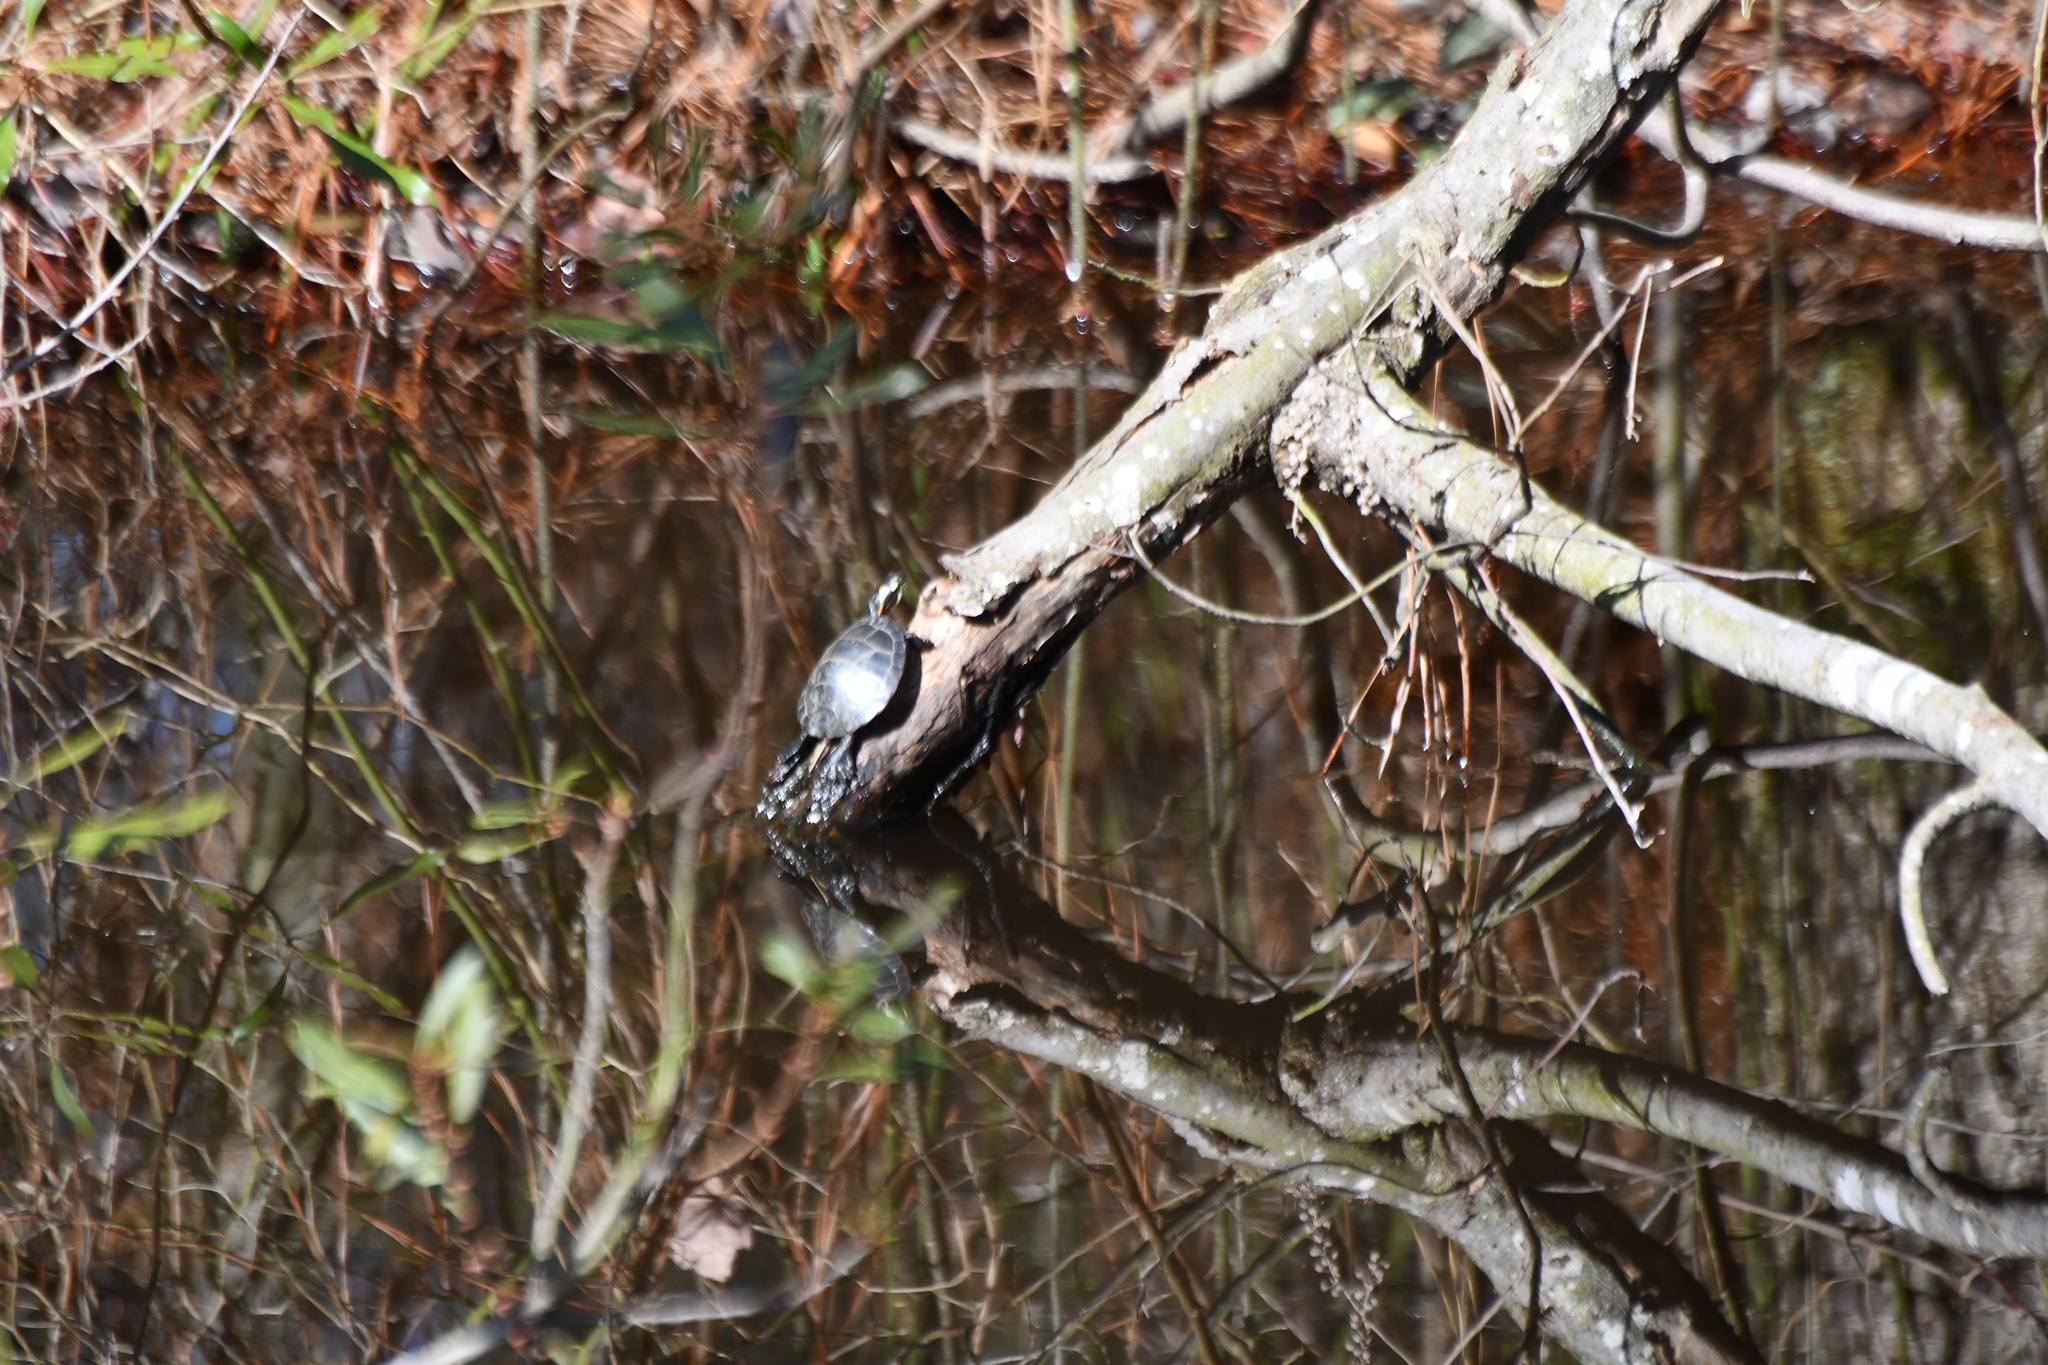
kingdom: Animalia
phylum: Chordata
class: Testudines
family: Emydidae
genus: Chrysemys
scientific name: Chrysemys picta
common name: Painted turtle
